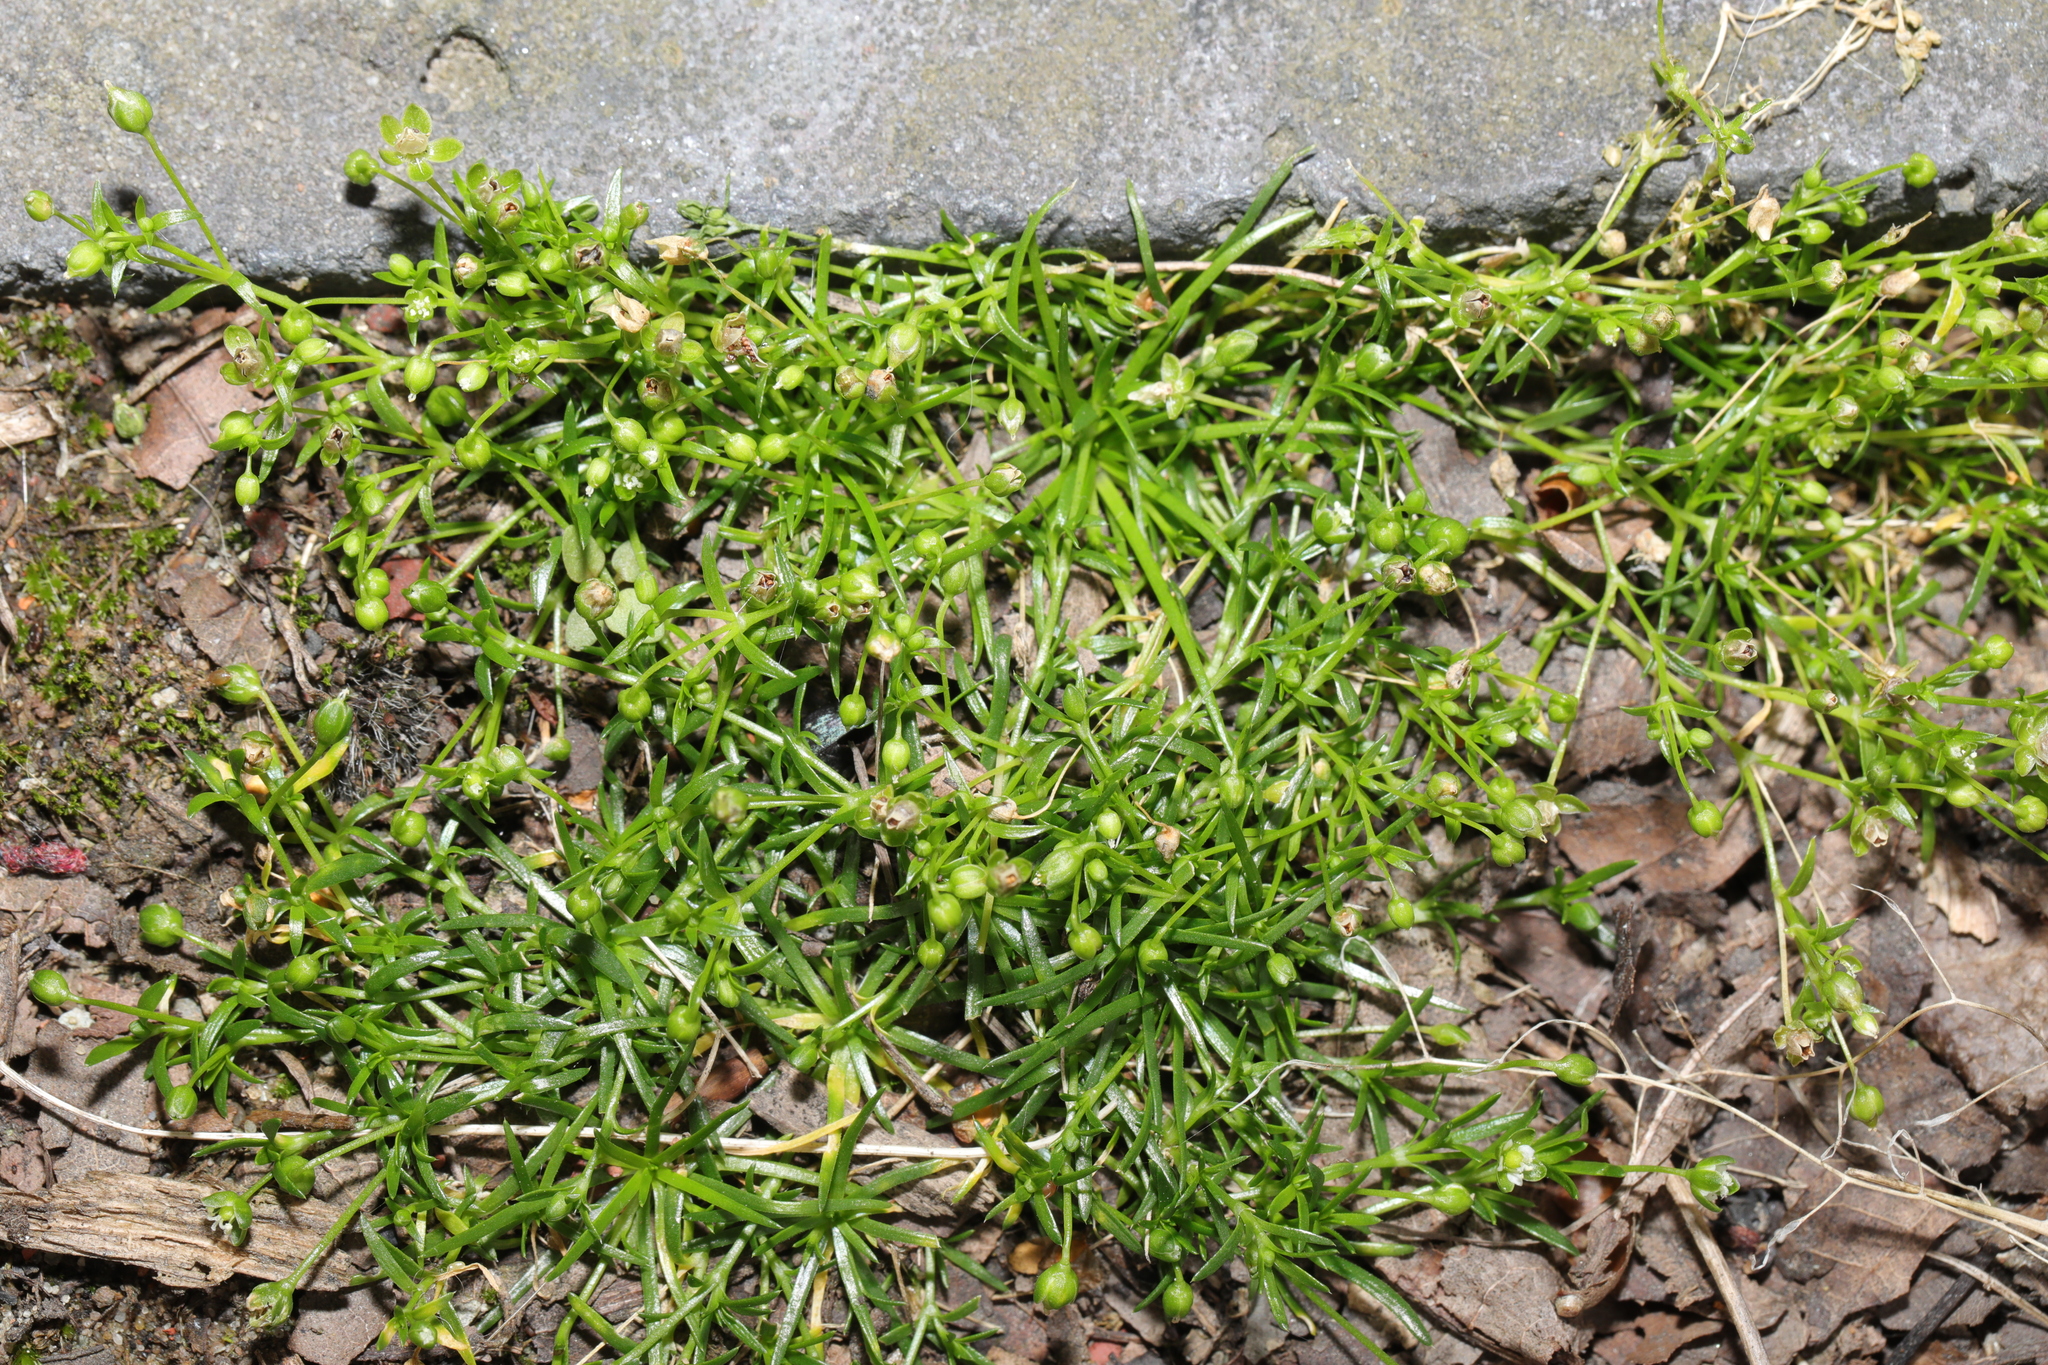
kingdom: Plantae
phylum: Tracheophyta
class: Magnoliopsida
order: Caryophyllales
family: Caryophyllaceae
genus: Sagina
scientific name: Sagina procumbens
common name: Procumbent pearlwort
